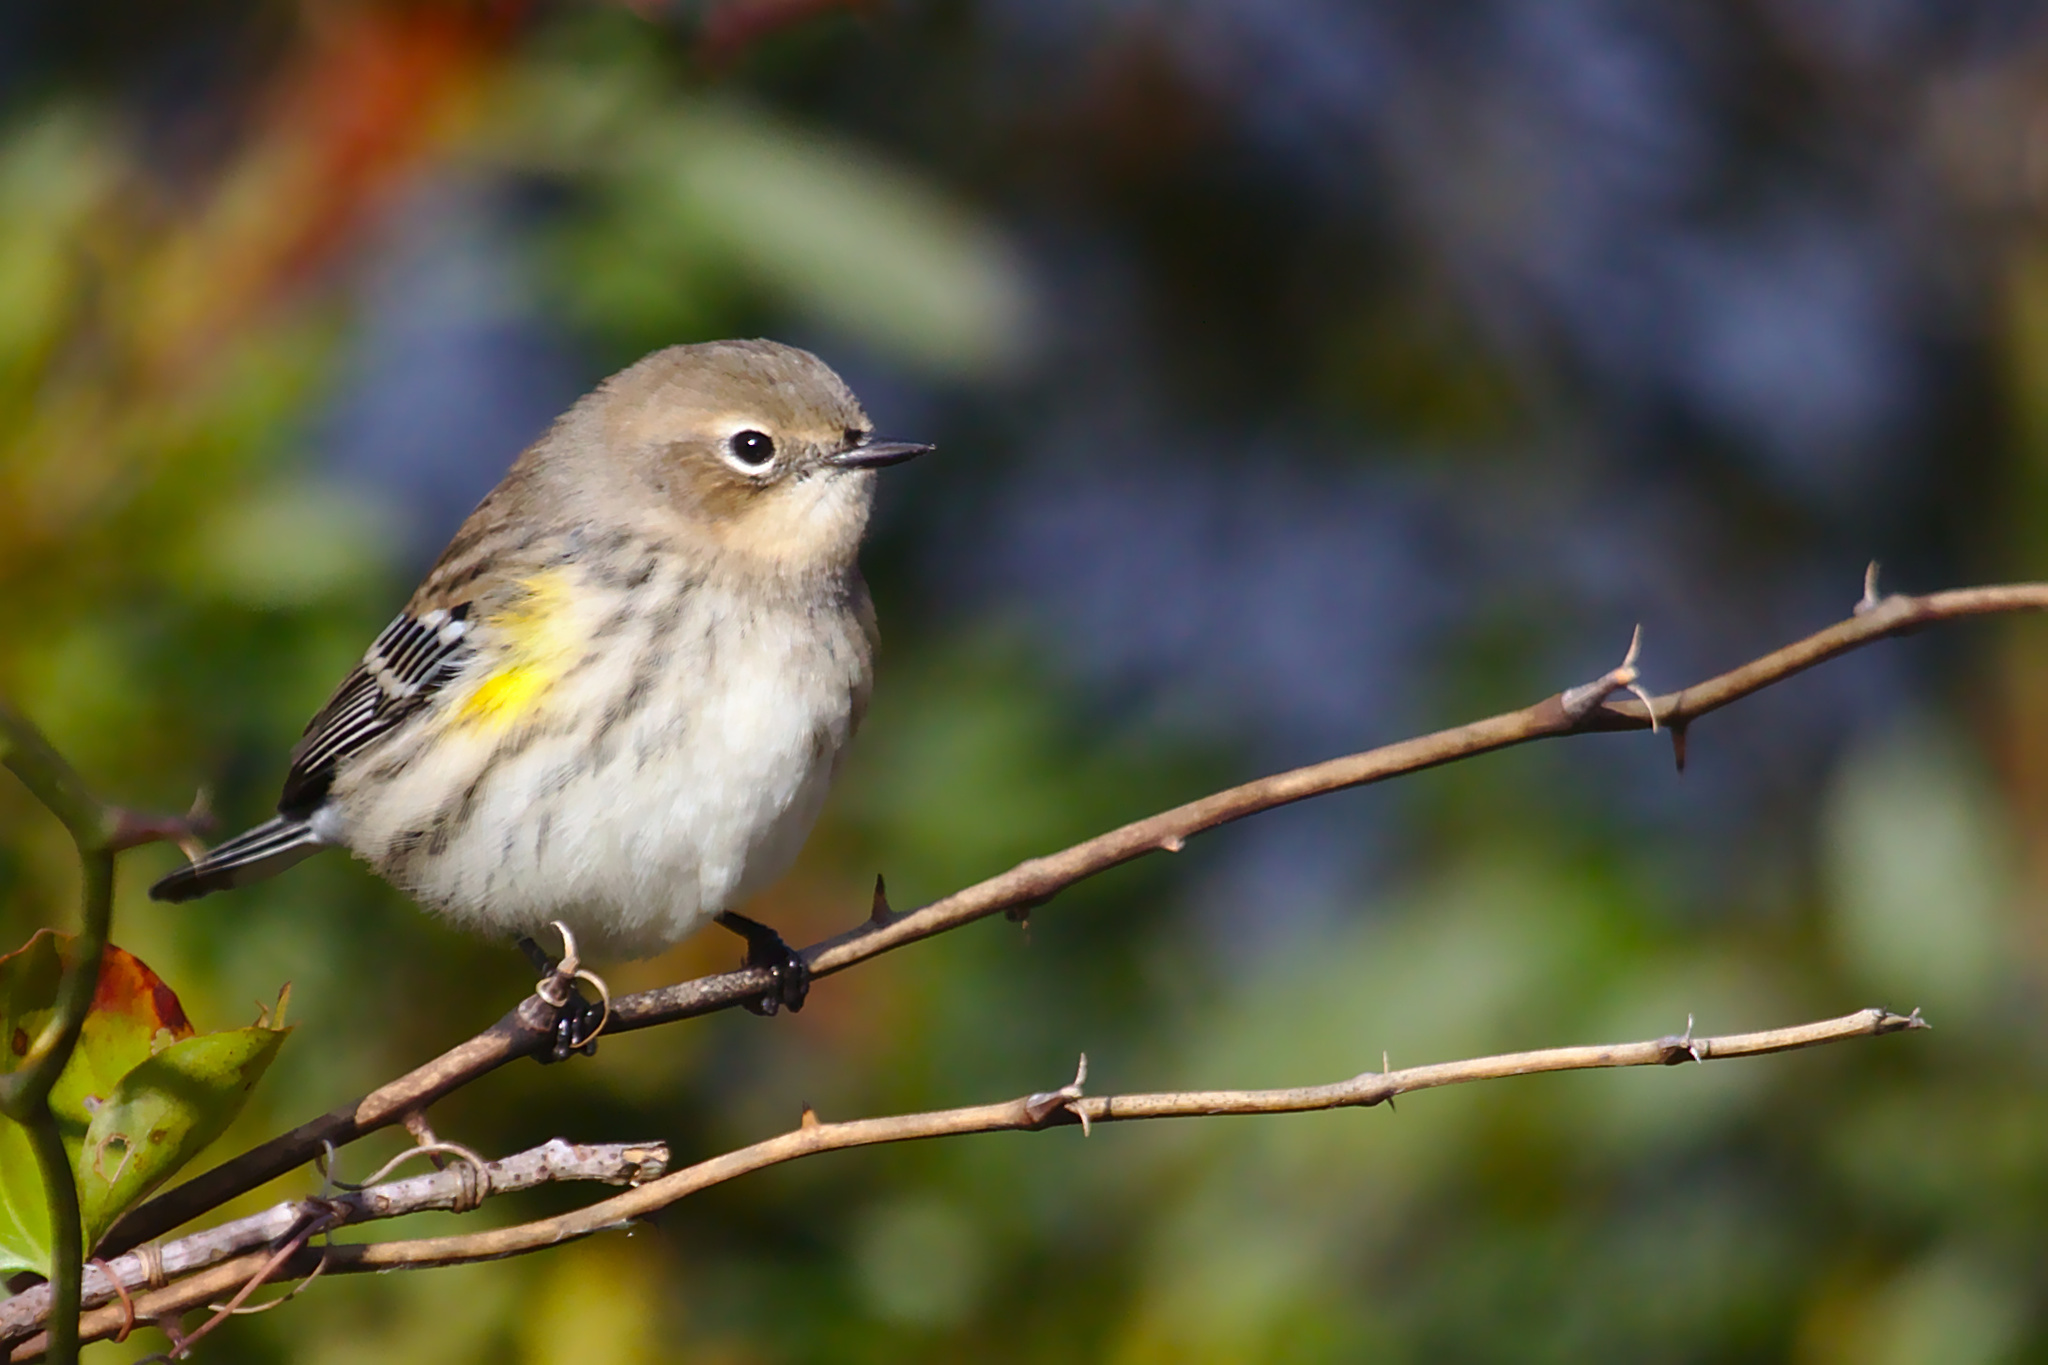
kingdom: Animalia
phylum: Chordata
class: Aves
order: Passeriformes
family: Parulidae
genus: Setophaga
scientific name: Setophaga coronata
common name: Myrtle warbler
